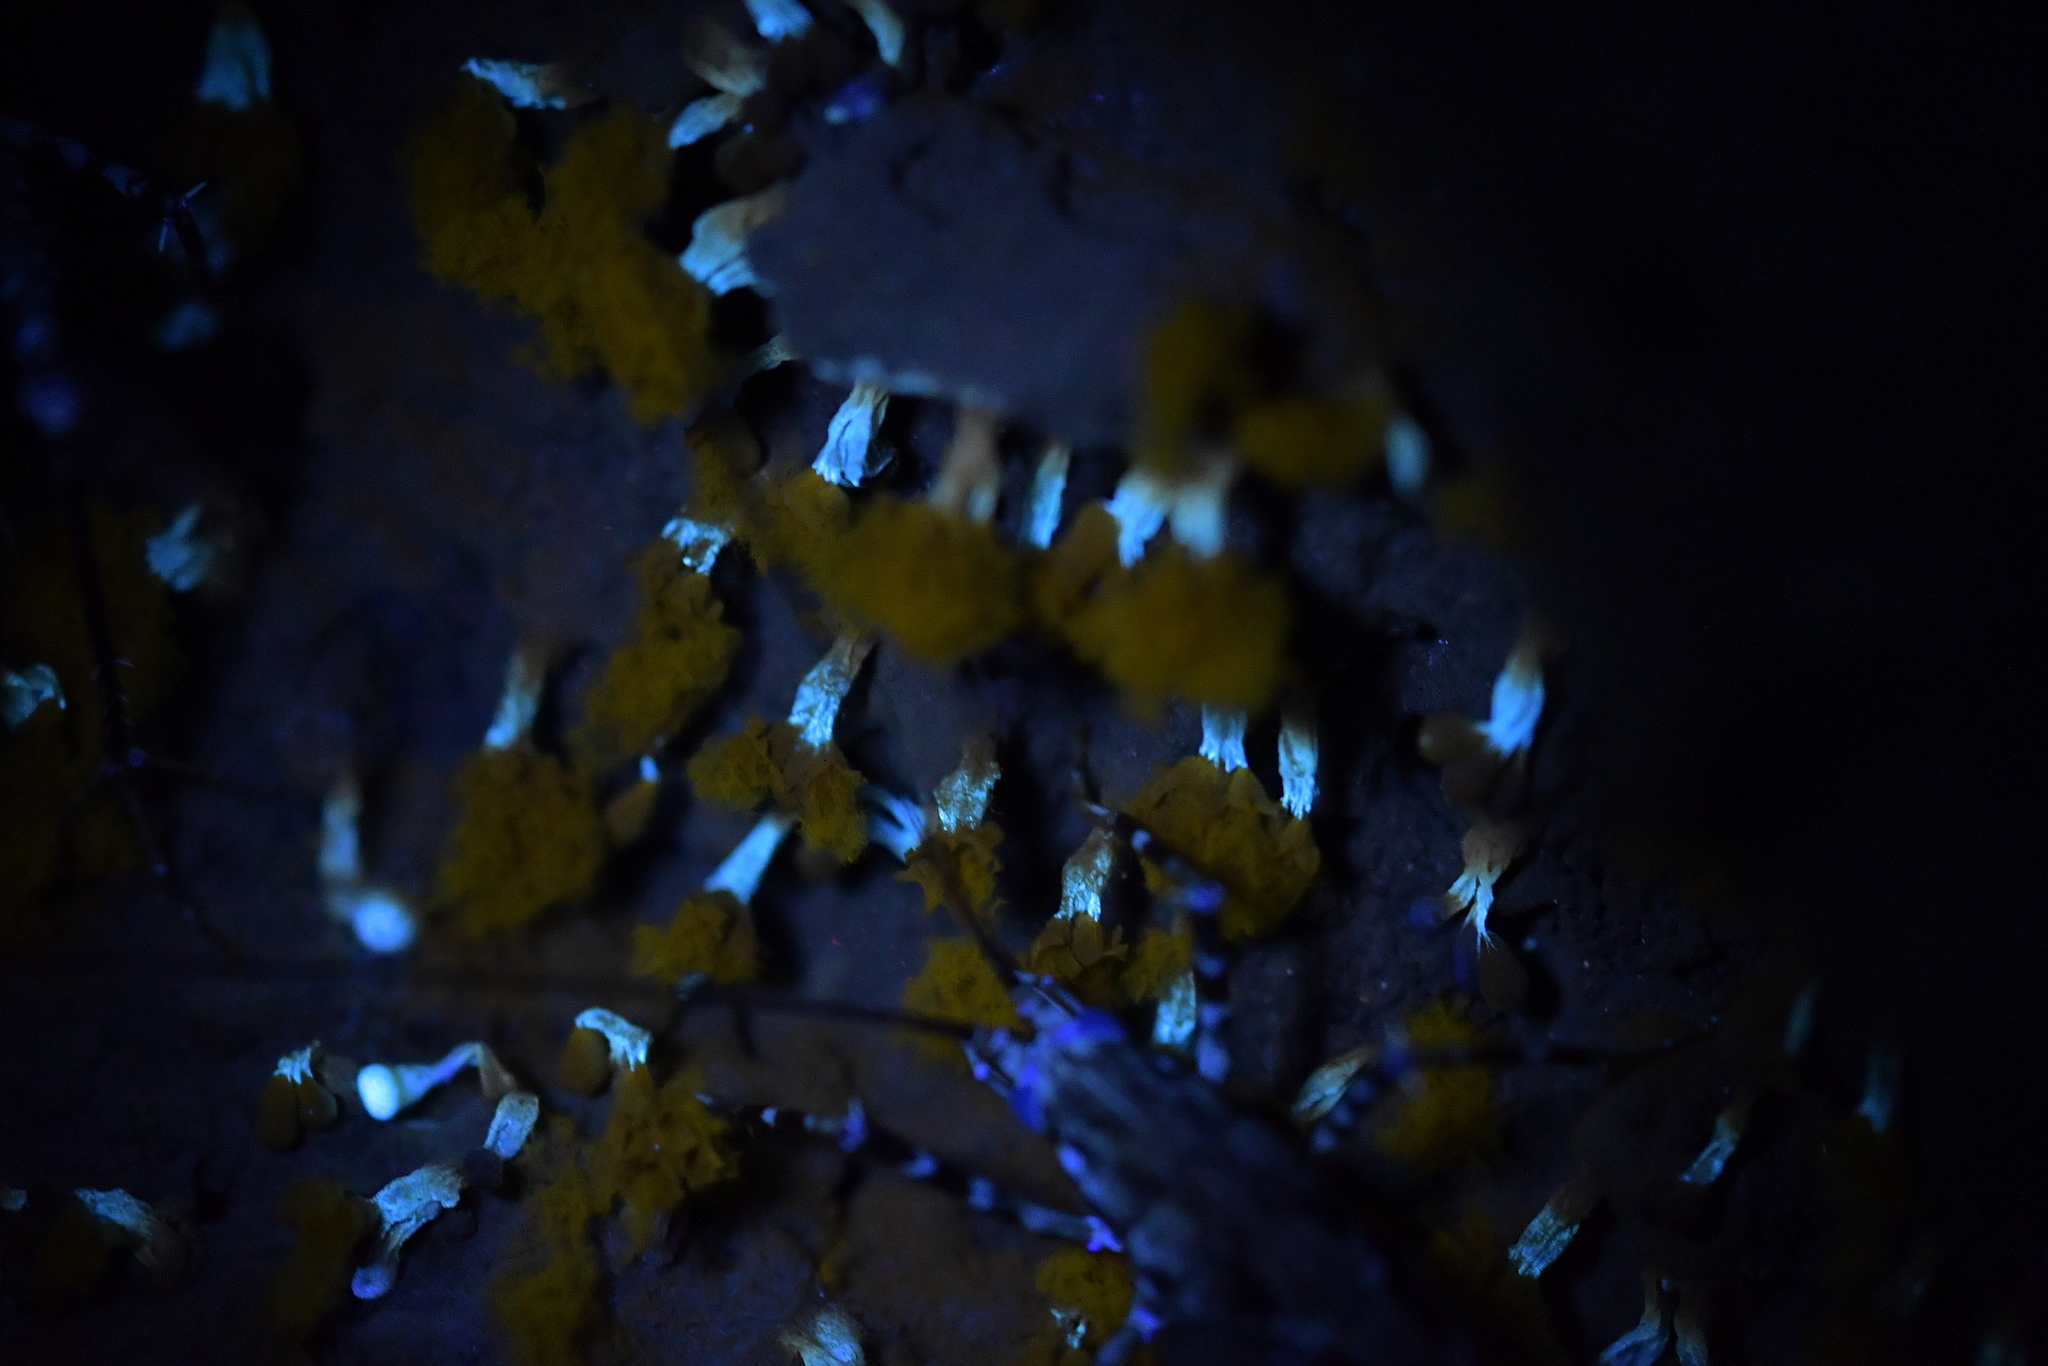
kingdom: Protozoa
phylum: Mycetozoa
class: Myxomycetes
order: Trichiales
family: Trichiaceae
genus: Oligonema
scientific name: Oligonema verrucosum
